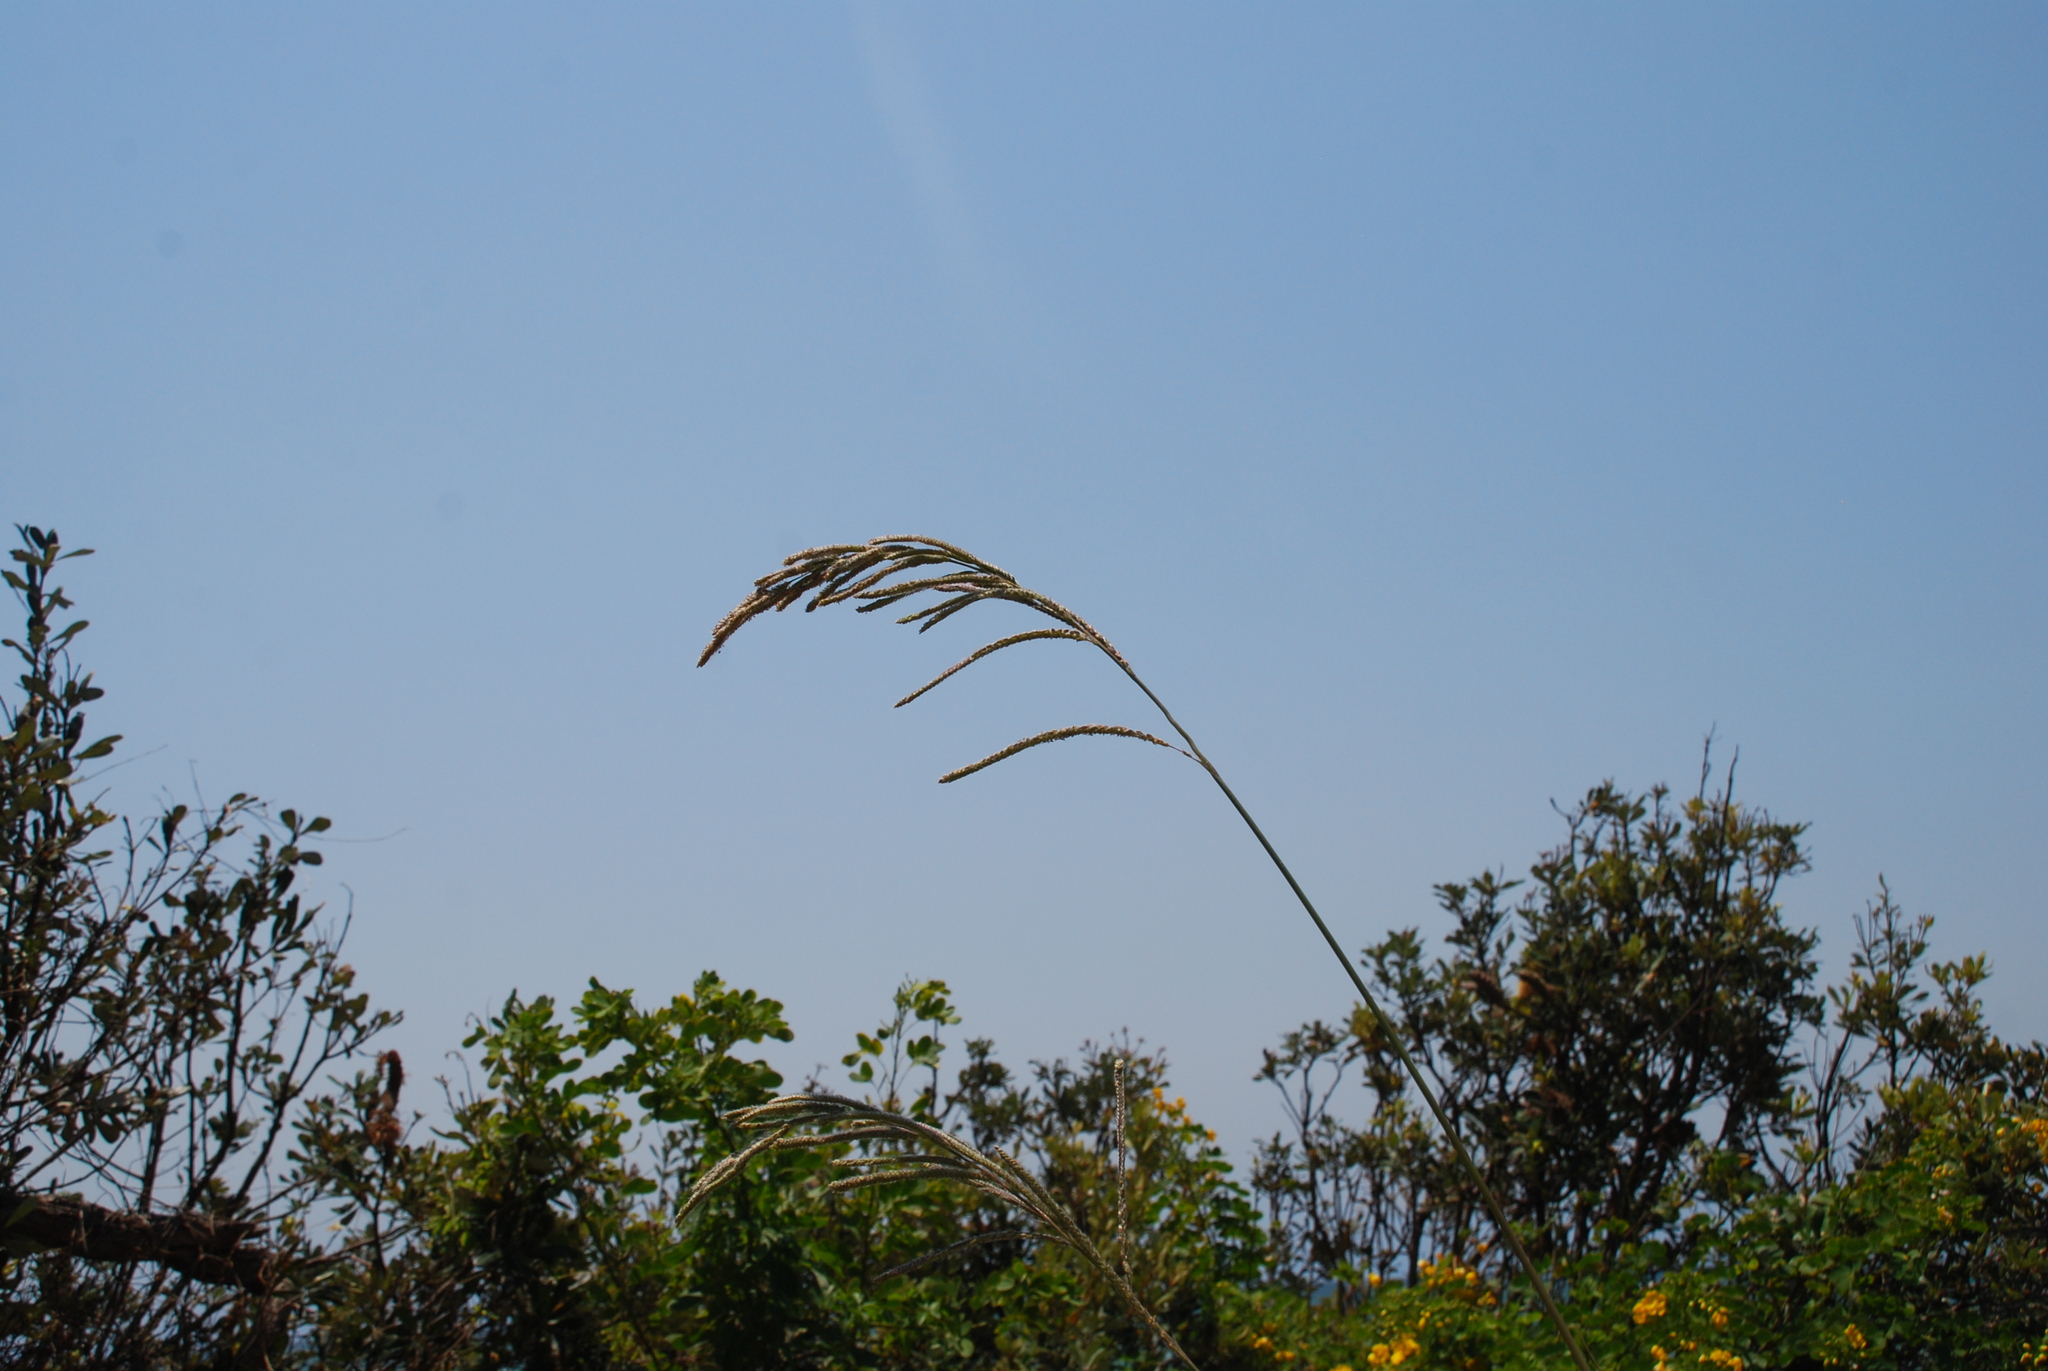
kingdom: Plantae
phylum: Tracheophyta
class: Liliopsida
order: Poales
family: Poaceae
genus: Paspalum
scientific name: Paspalum urvillei
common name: Vasey's grass
